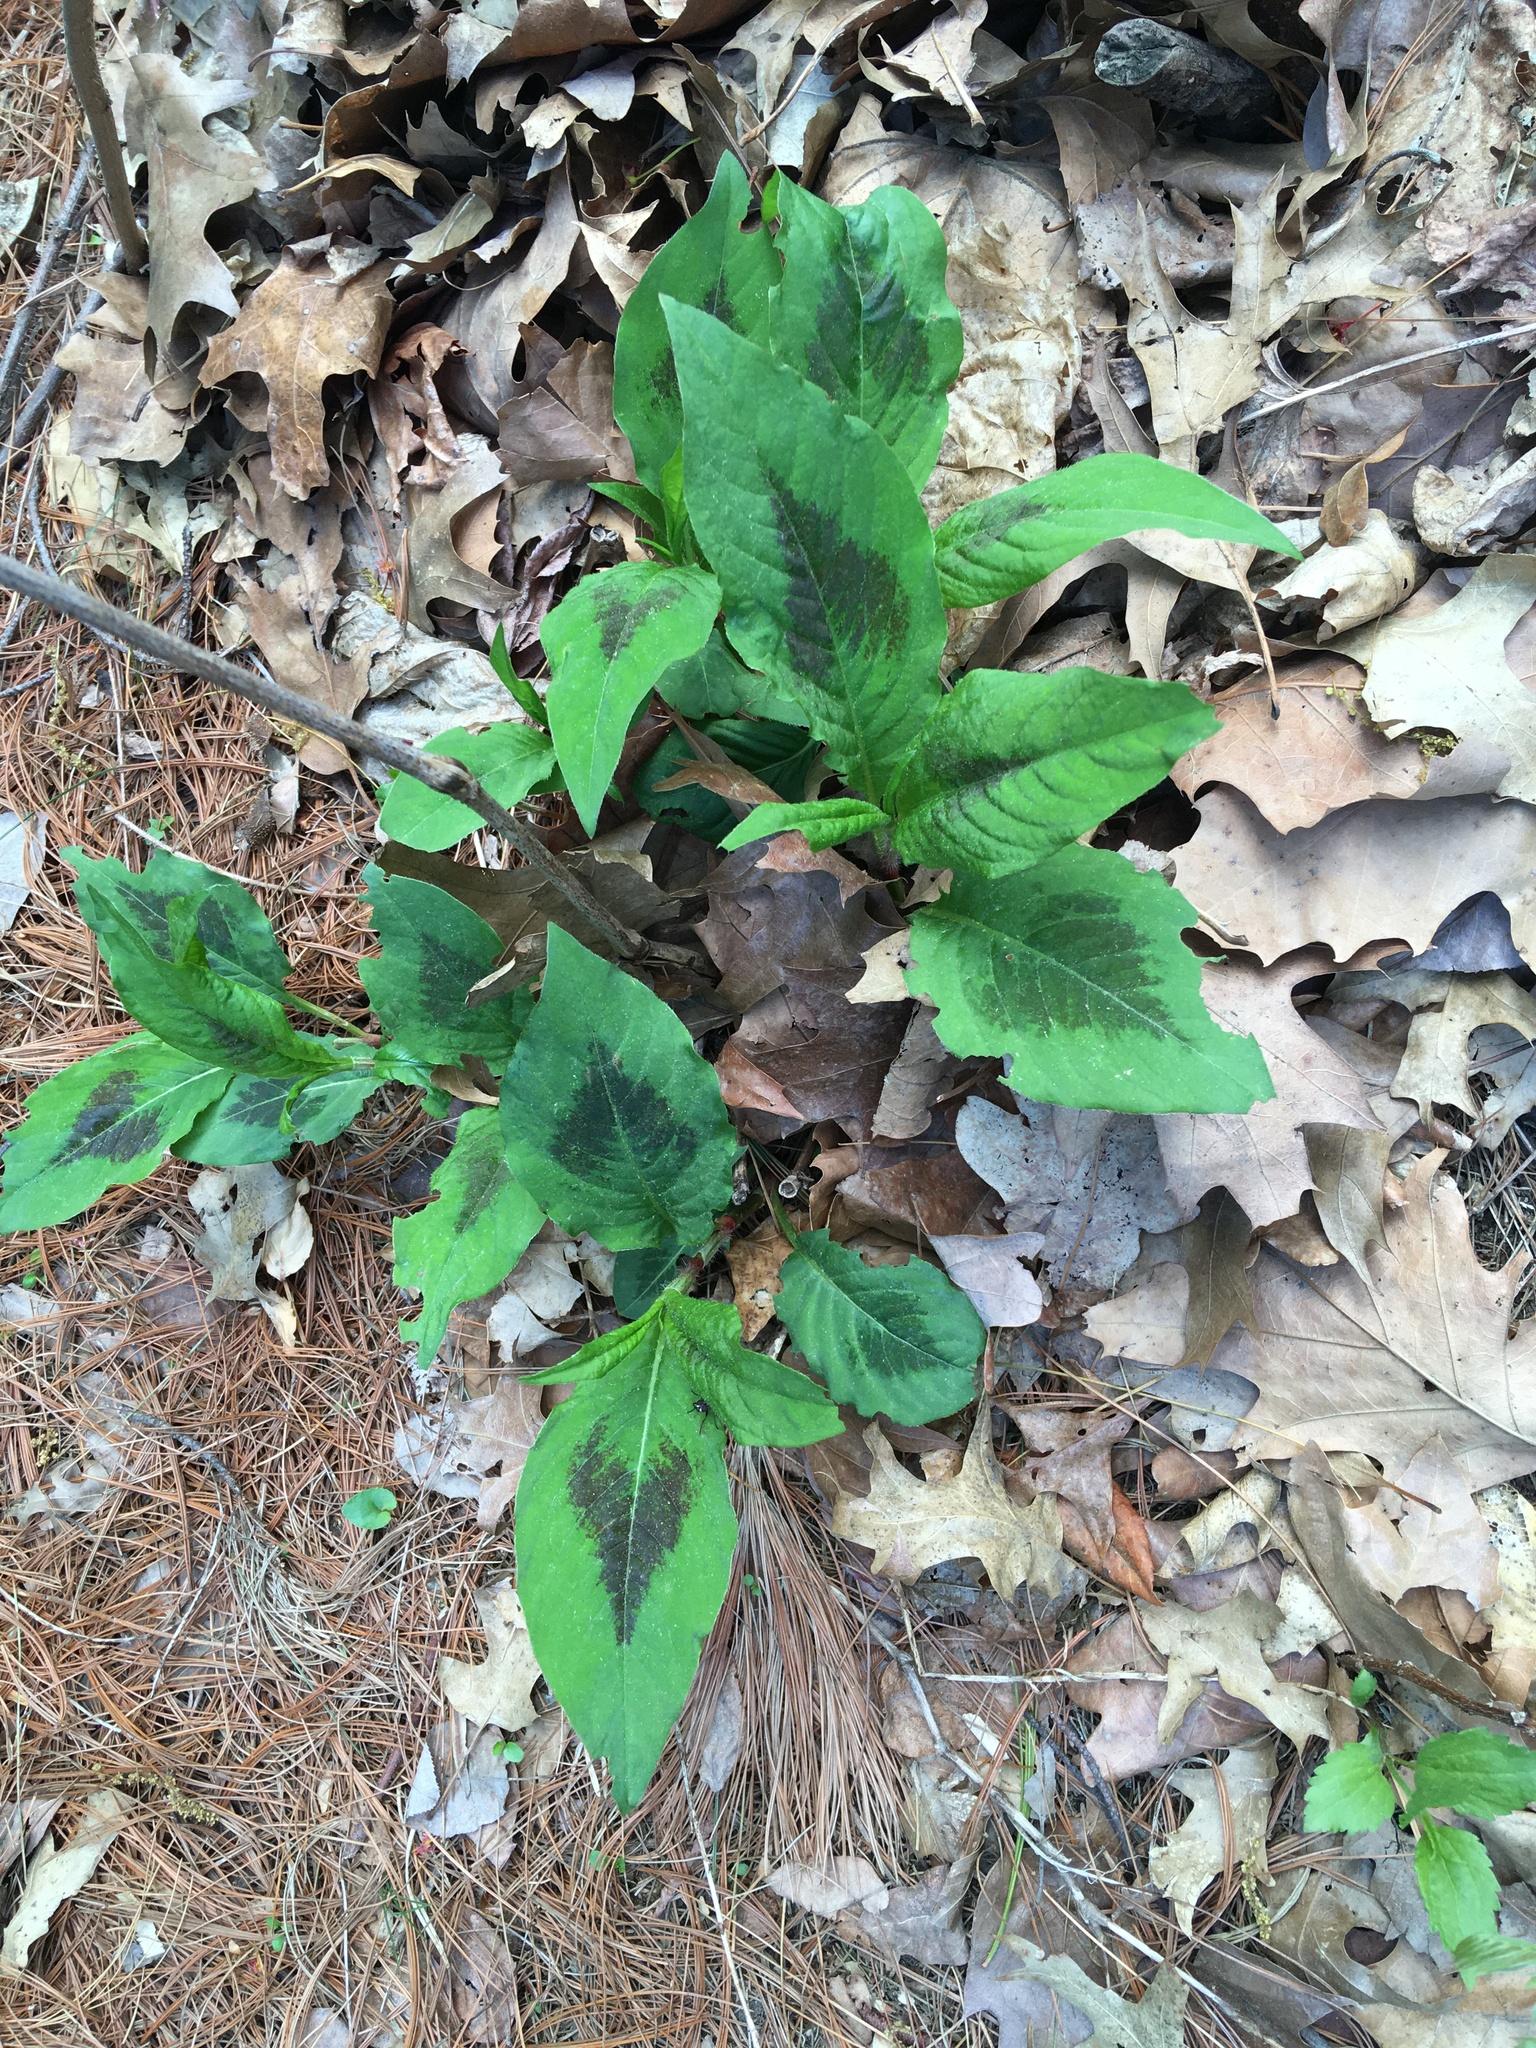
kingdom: Plantae
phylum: Tracheophyta
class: Magnoliopsida
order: Caryophyllales
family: Polygonaceae
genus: Persicaria
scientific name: Persicaria virginiana
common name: Jumpseed
